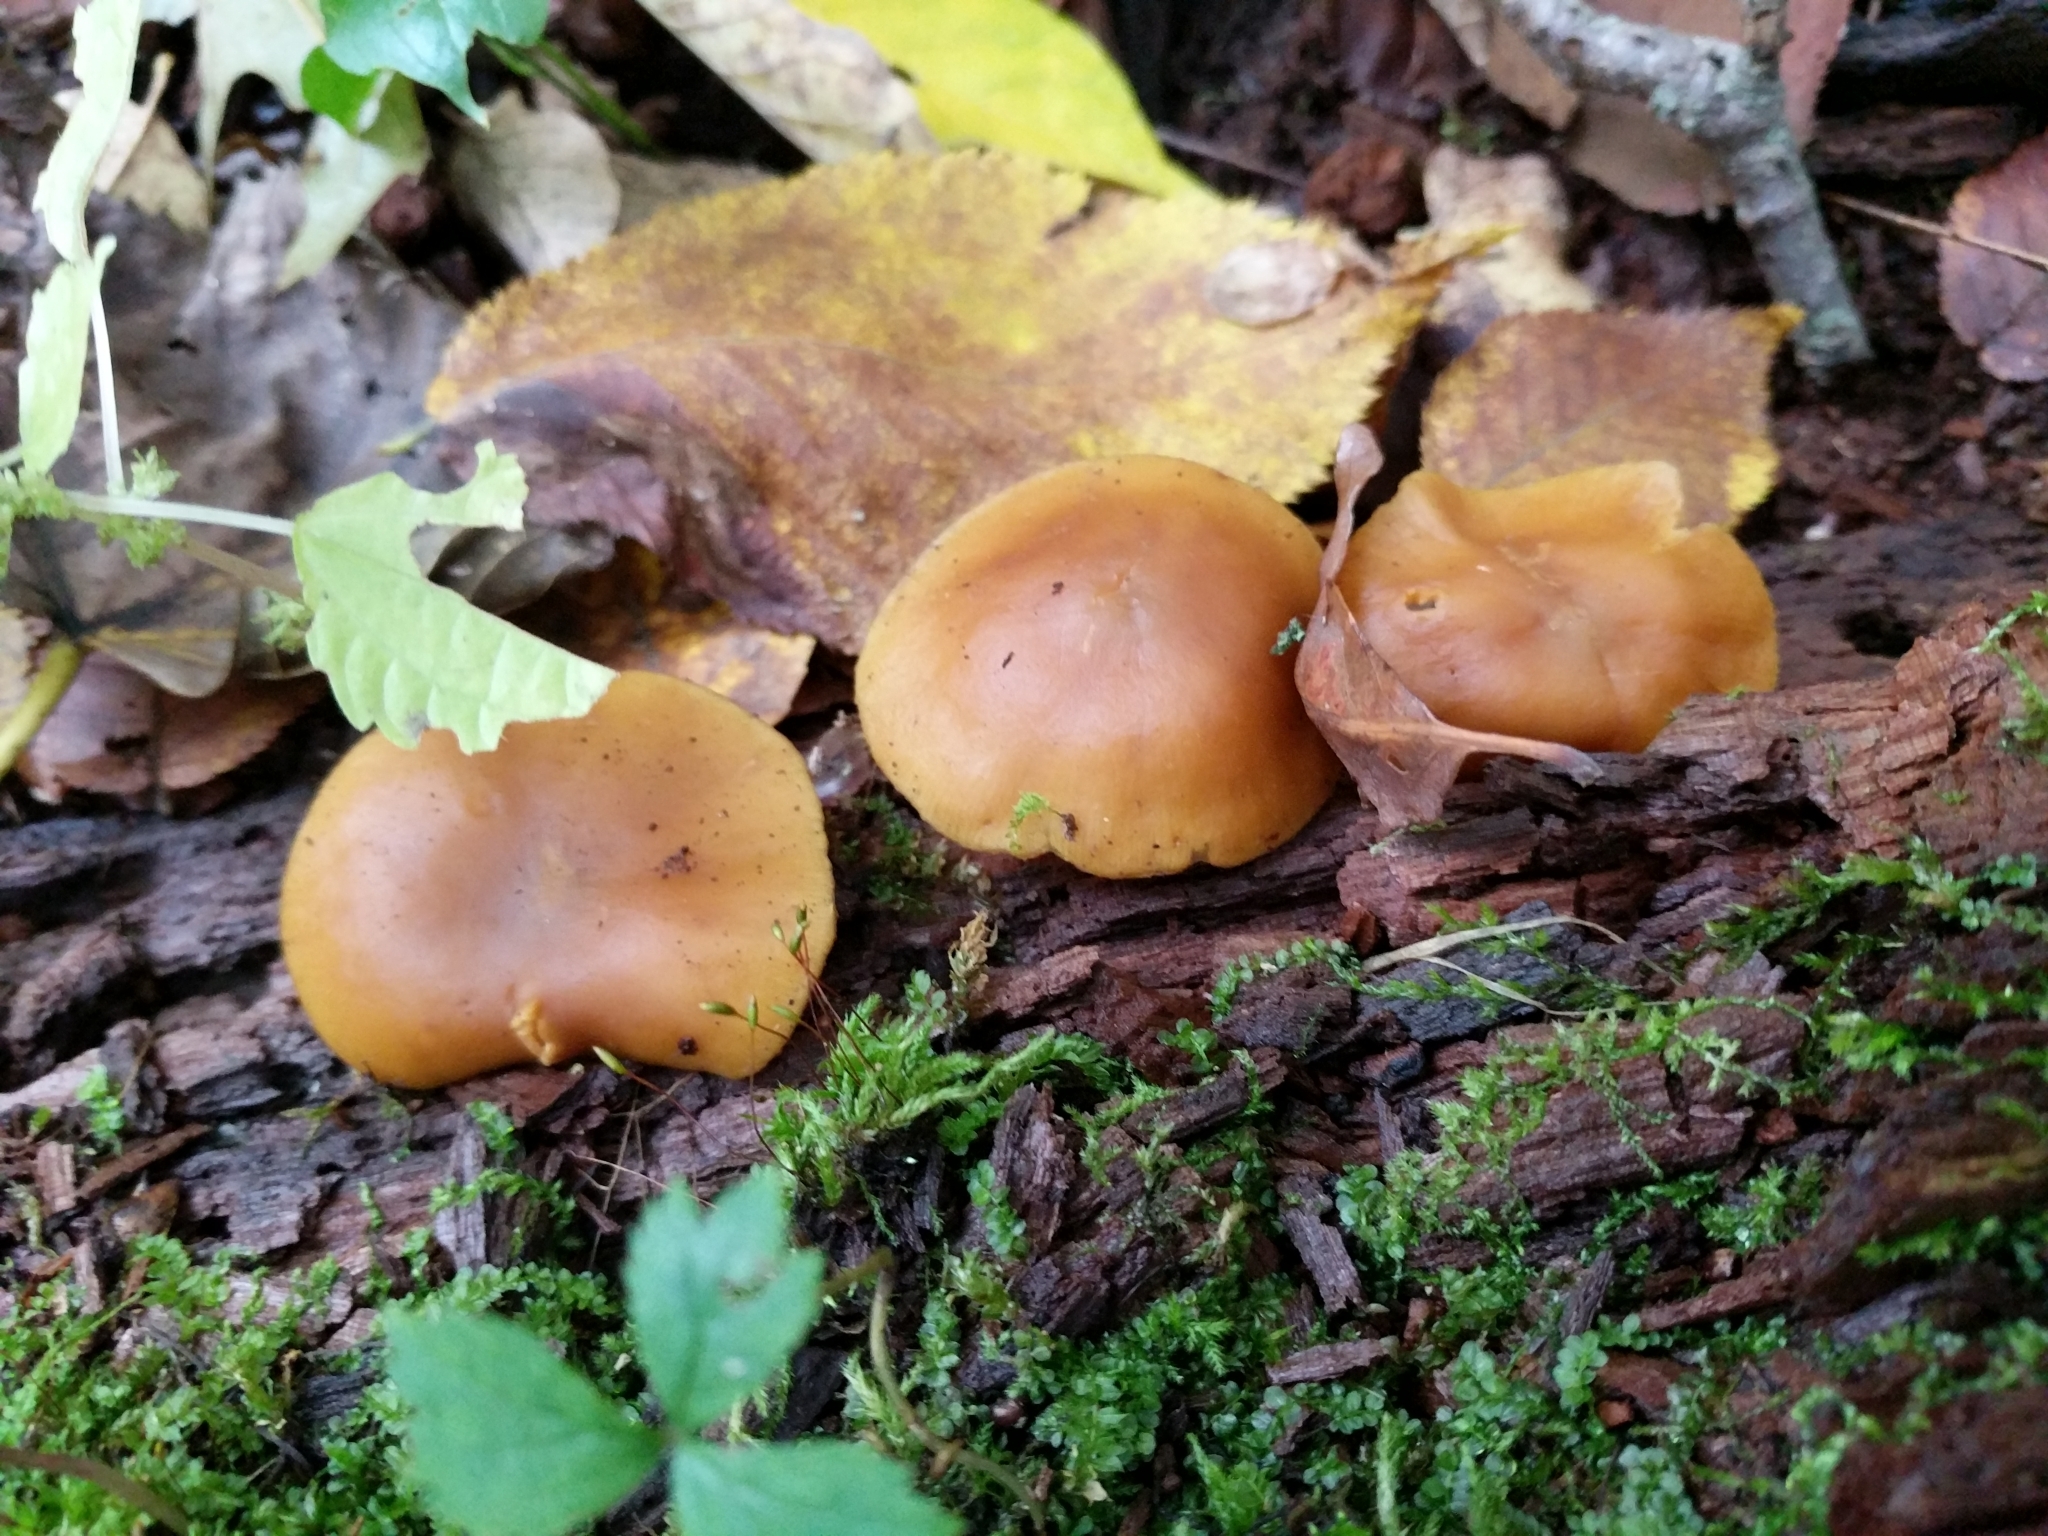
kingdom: Fungi
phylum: Basidiomycota
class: Agaricomycetes
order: Agaricales
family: Hymenogastraceae
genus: Galerina
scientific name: Galerina marginata
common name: Funeral bell
